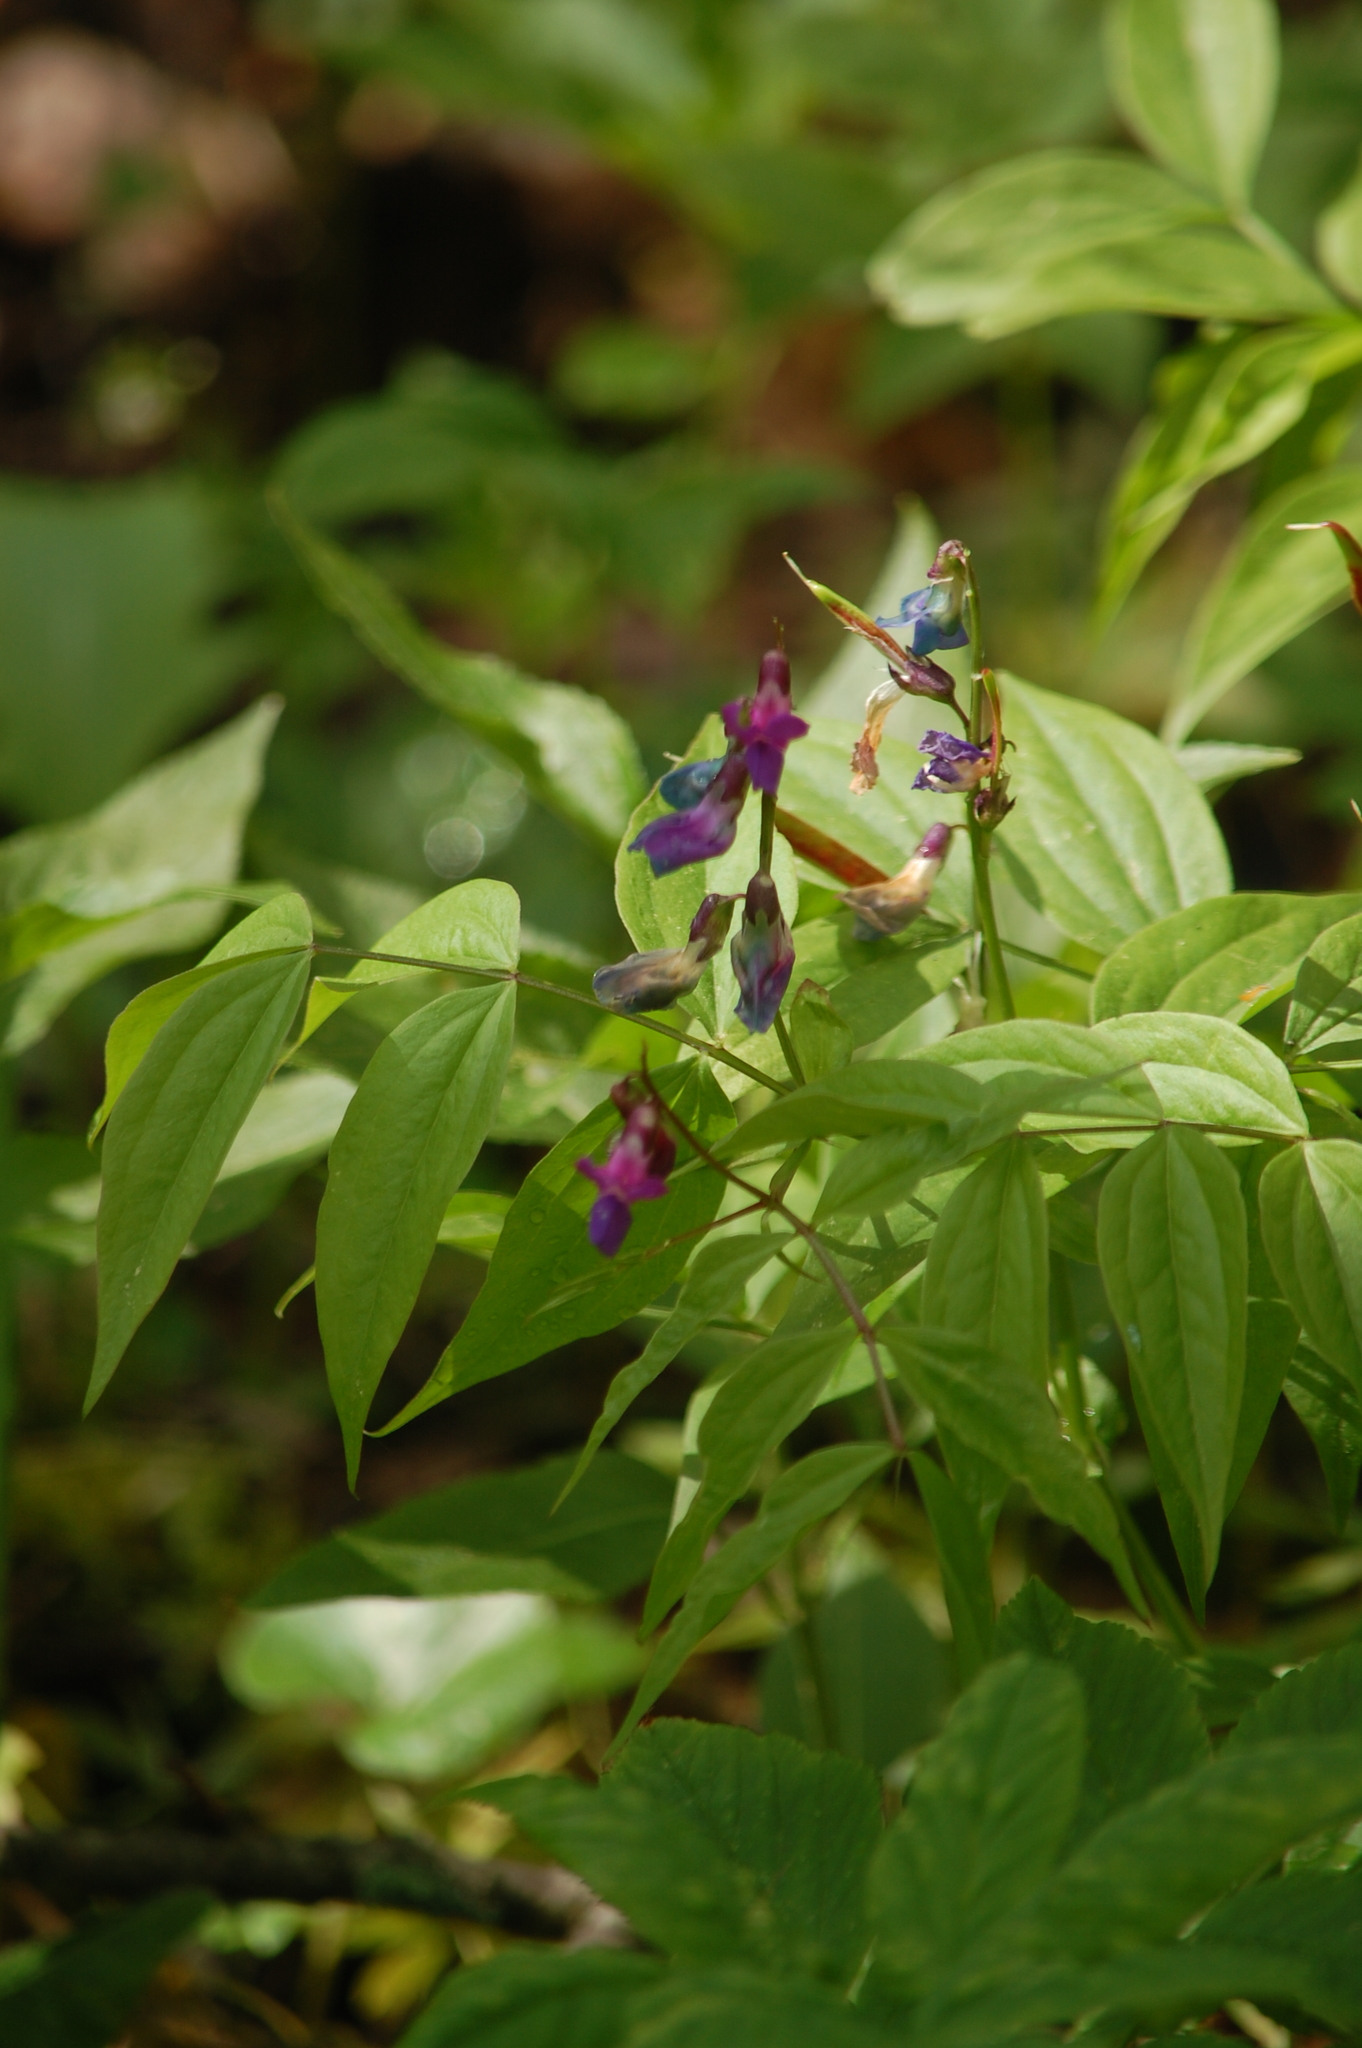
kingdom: Plantae
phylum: Tracheophyta
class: Magnoliopsida
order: Fabales
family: Fabaceae
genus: Lathyrus
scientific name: Lathyrus vernus
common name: Spring pea
